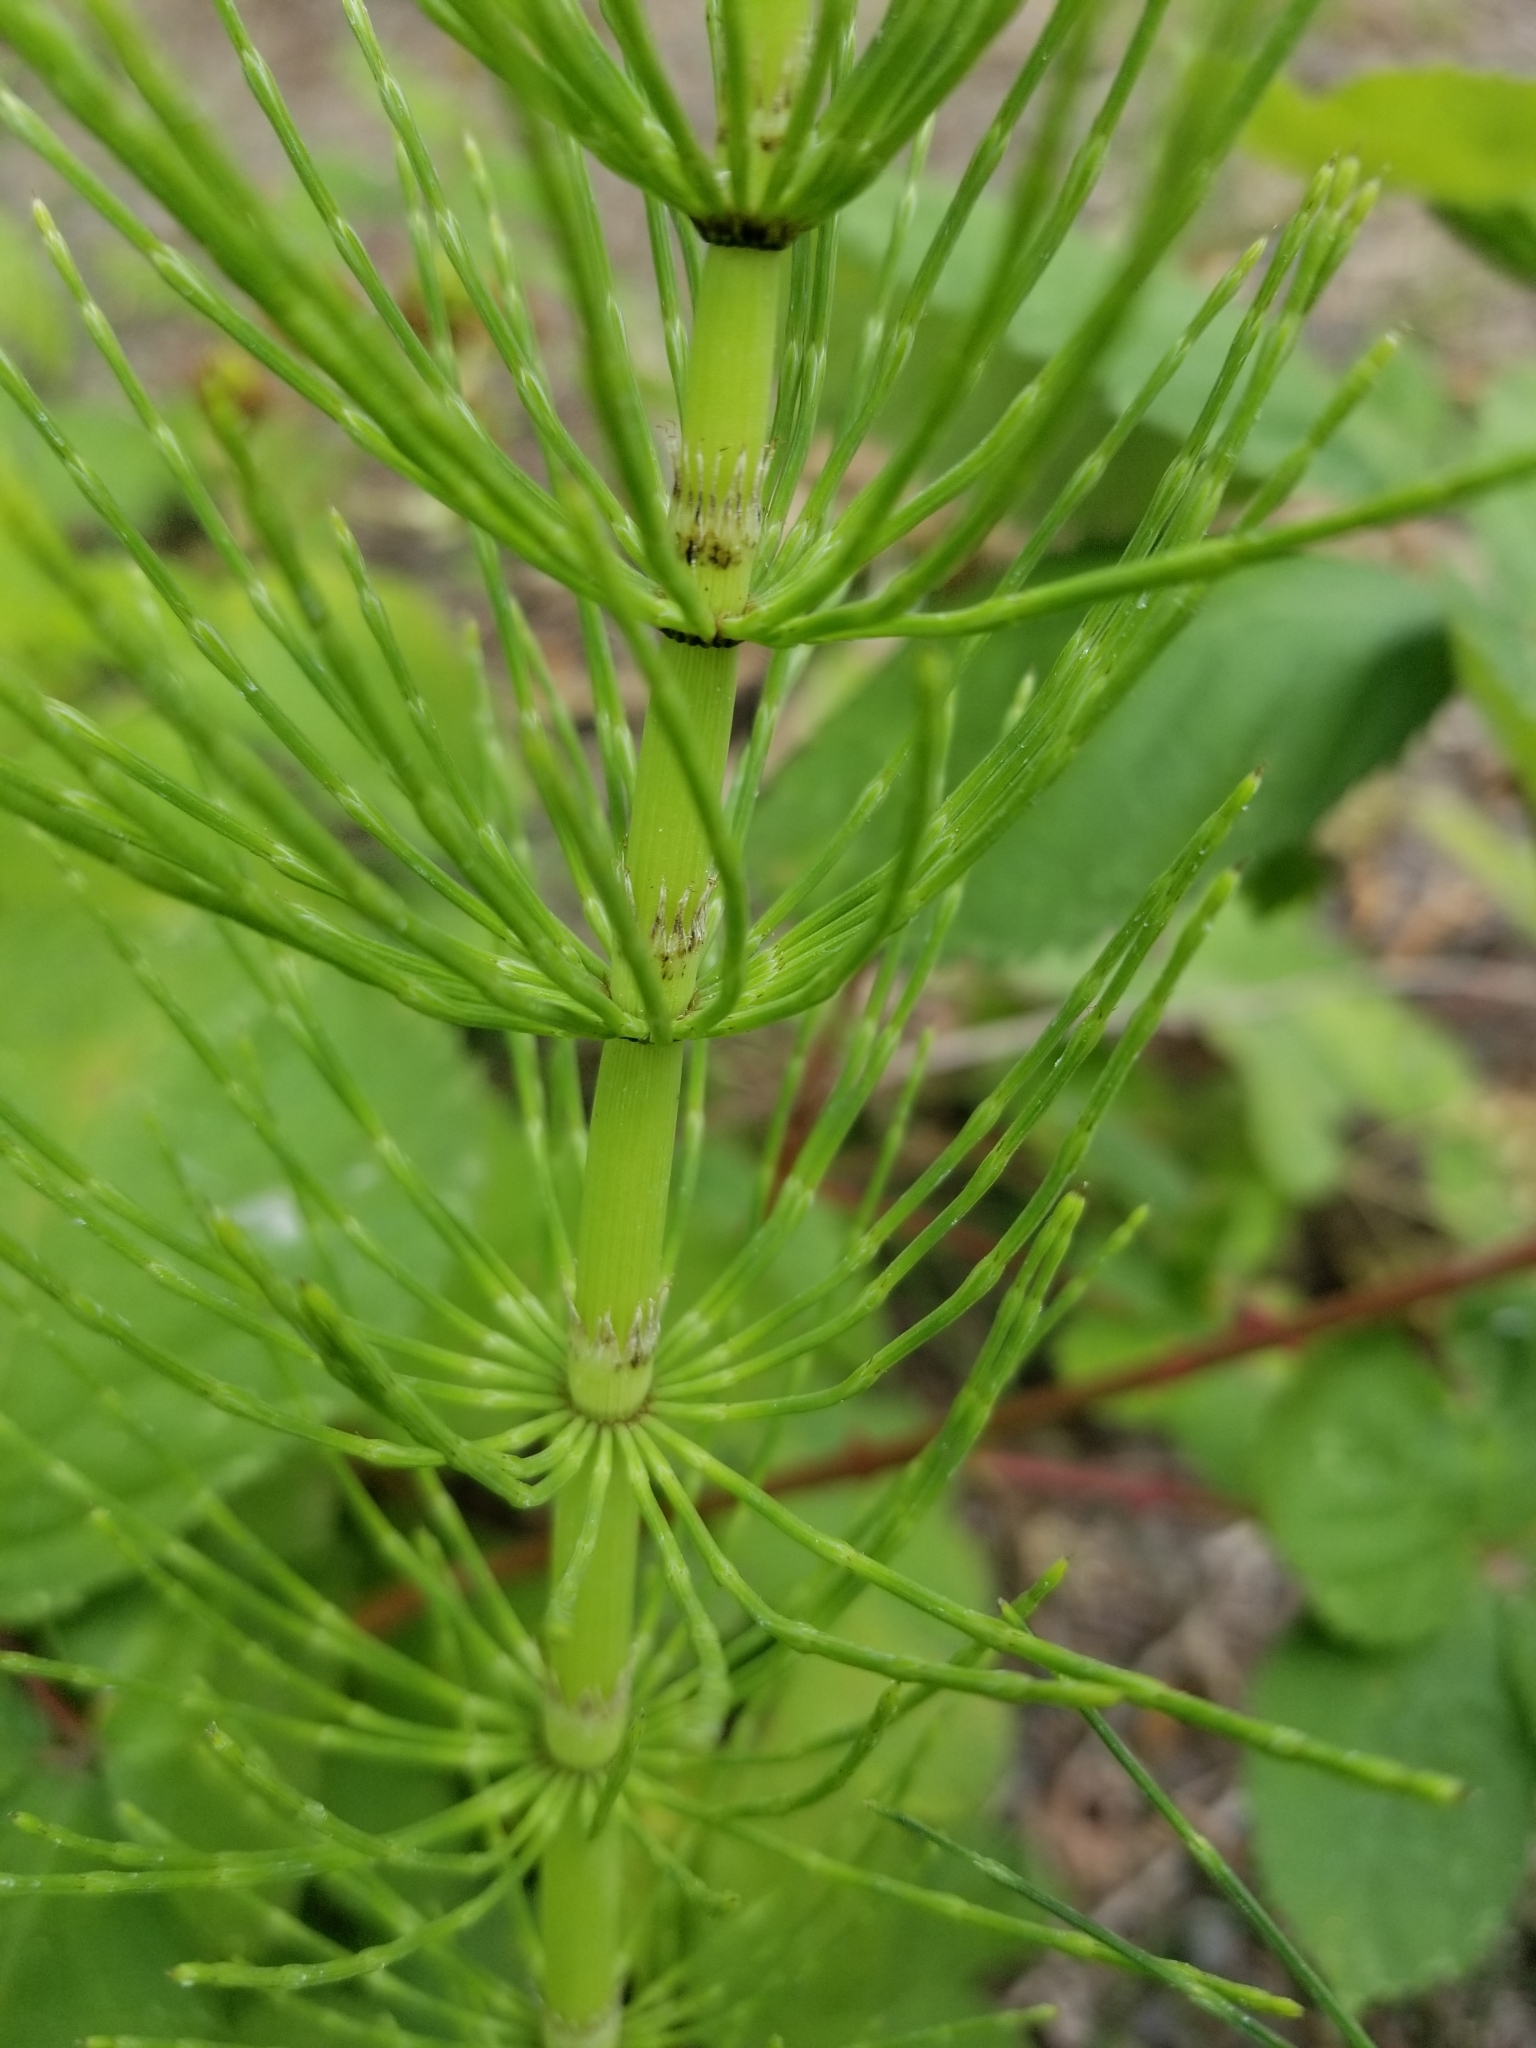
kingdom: Plantae
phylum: Tracheophyta
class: Polypodiopsida
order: Equisetales
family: Equisetaceae
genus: Equisetum
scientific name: Equisetum telmateia
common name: Great horsetail
